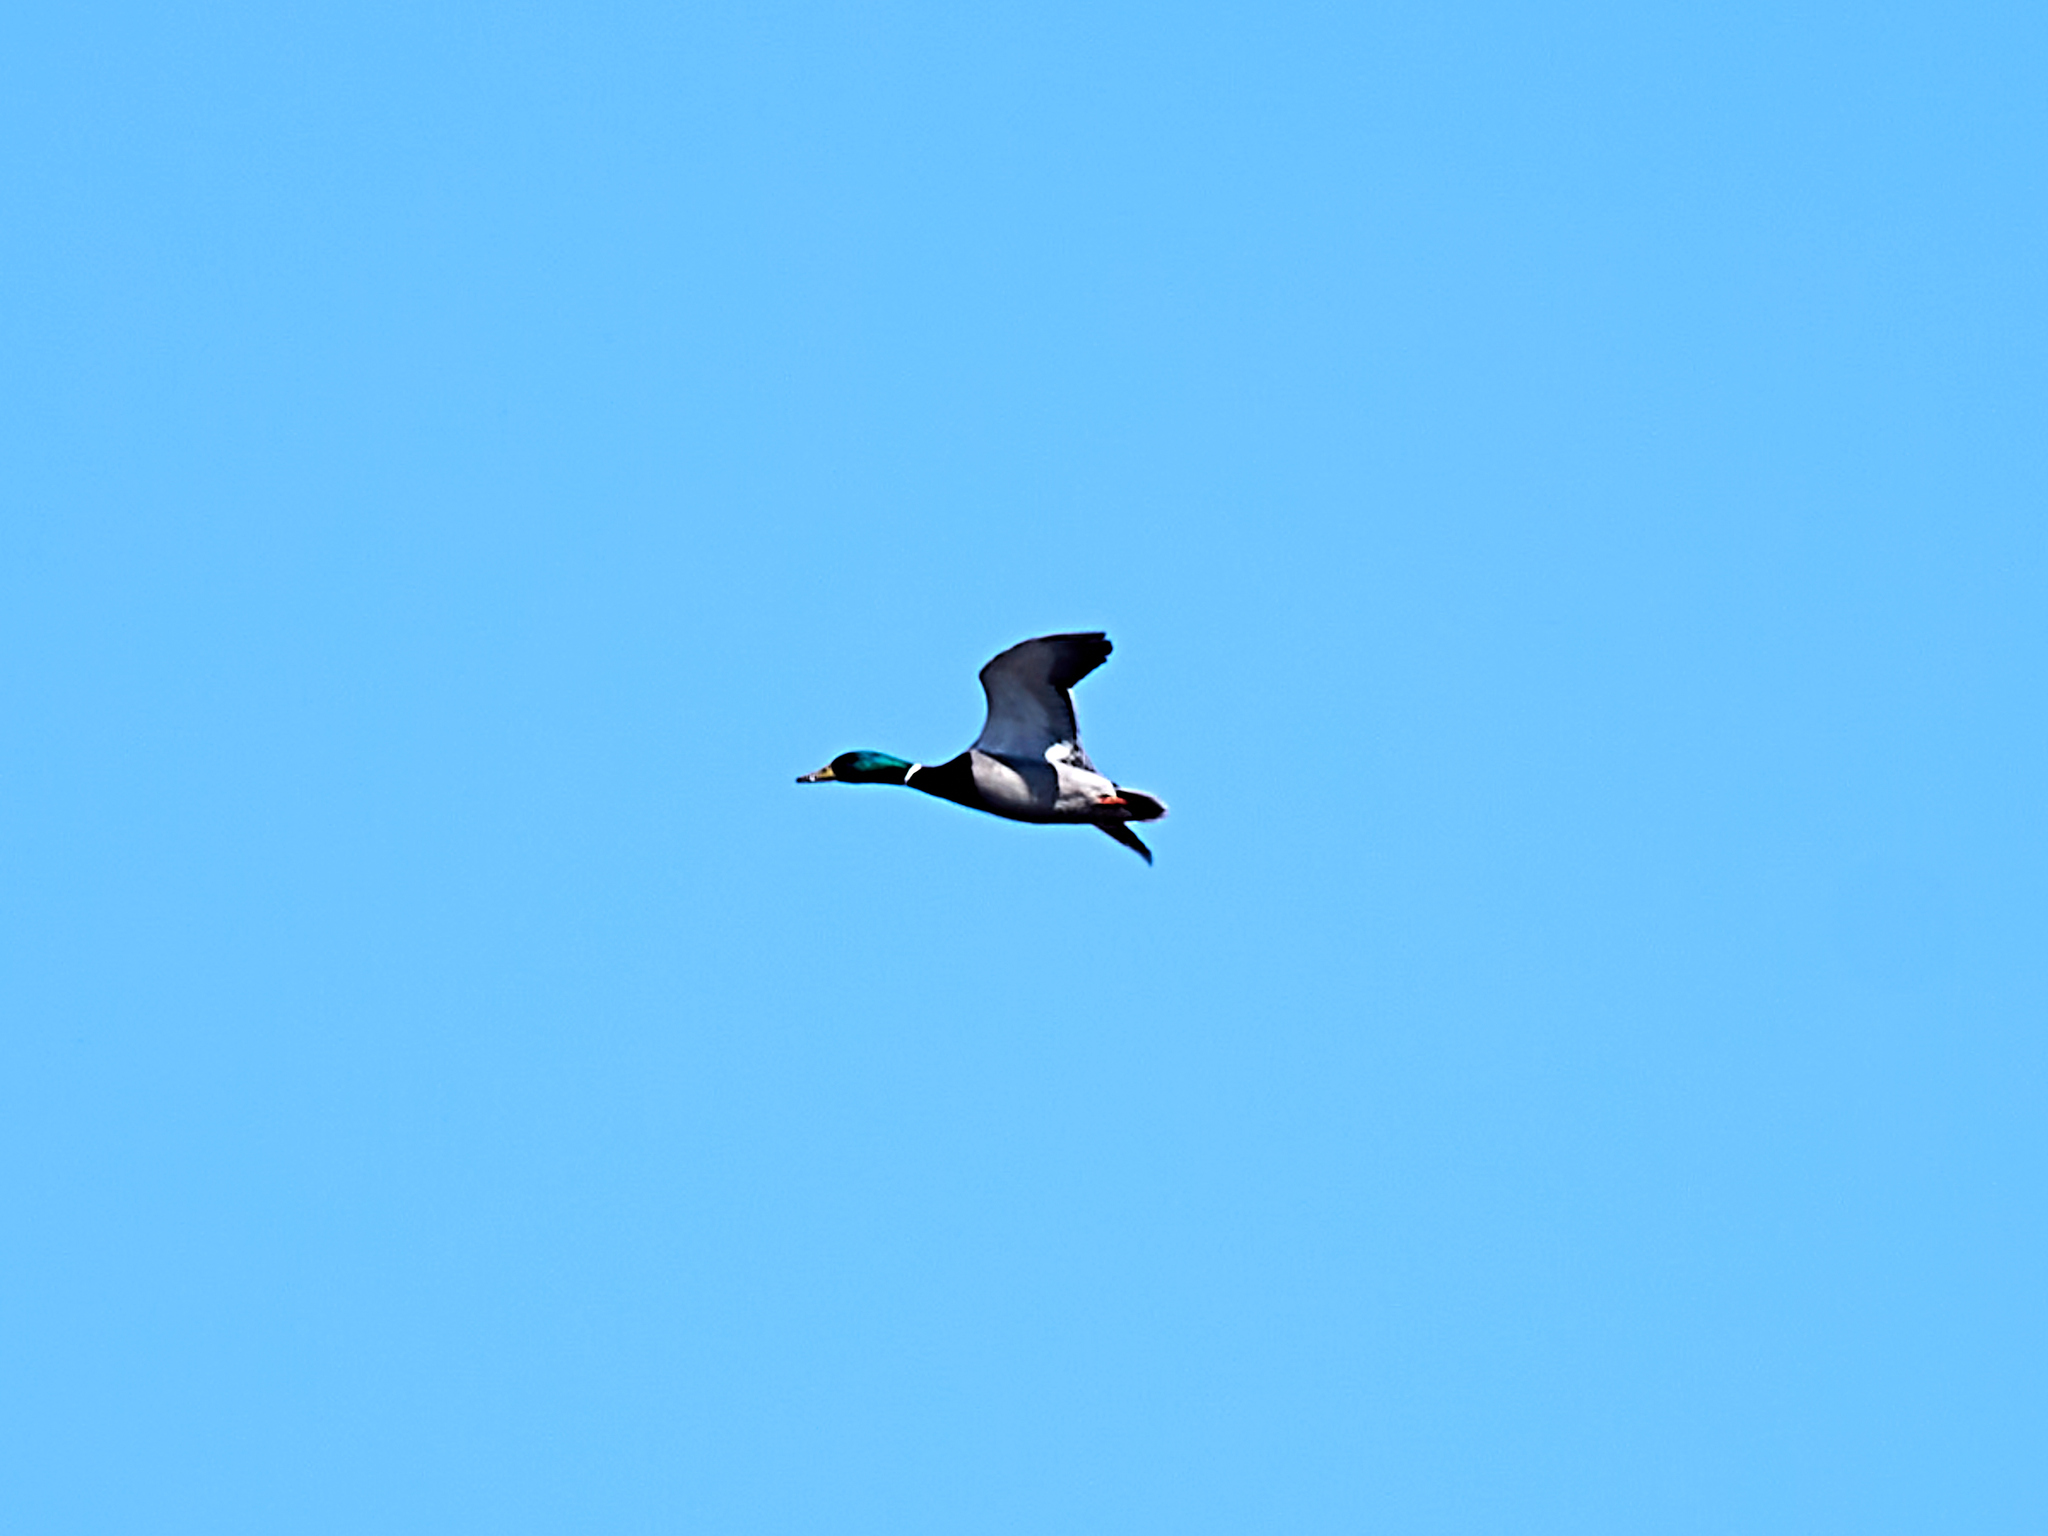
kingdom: Animalia
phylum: Chordata
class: Aves
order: Anseriformes
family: Anatidae
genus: Anas
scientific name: Anas platyrhynchos
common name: Mallard
